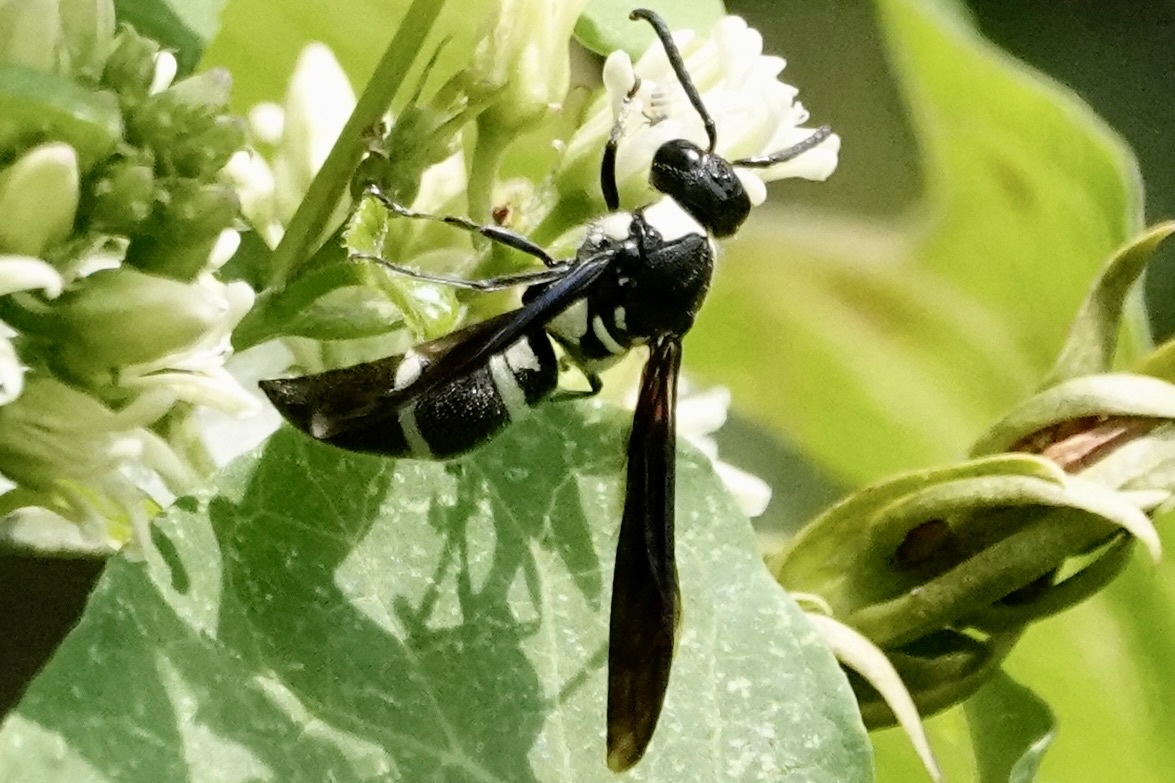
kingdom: Animalia
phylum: Arthropoda
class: Insecta
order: Hymenoptera
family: Eumenidae
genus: Pseudodynerus
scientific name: Pseudodynerus quadrisectus
